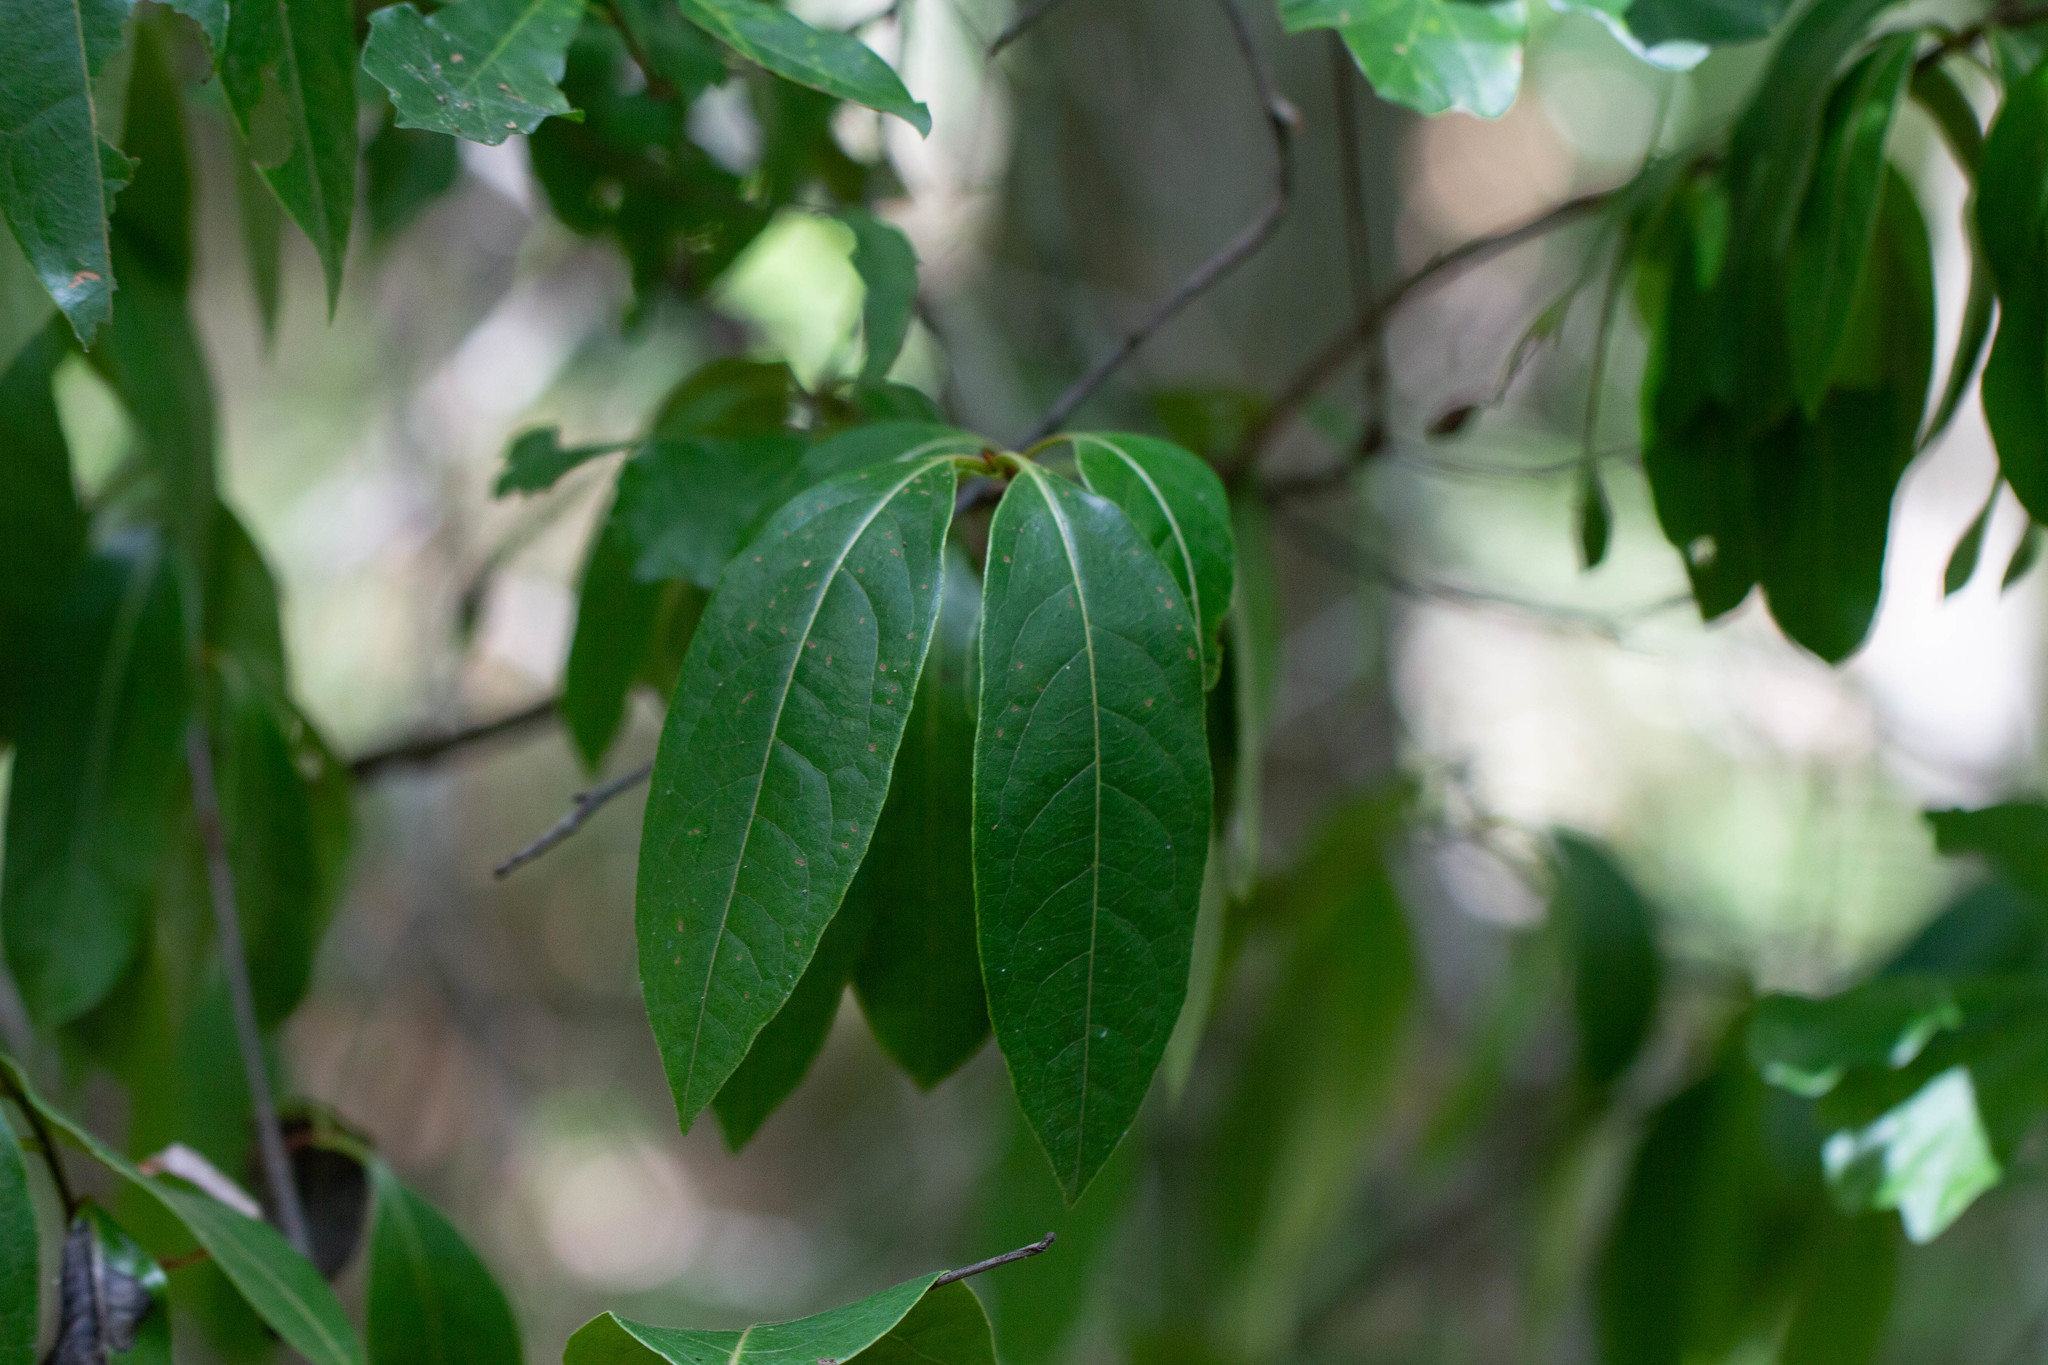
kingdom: Plantae
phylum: Tracheophyta
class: Magnoliopsida
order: Ericales
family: Symplocaceae
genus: Symplocos
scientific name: Symplocos tinctoria
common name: Horse-sugar
